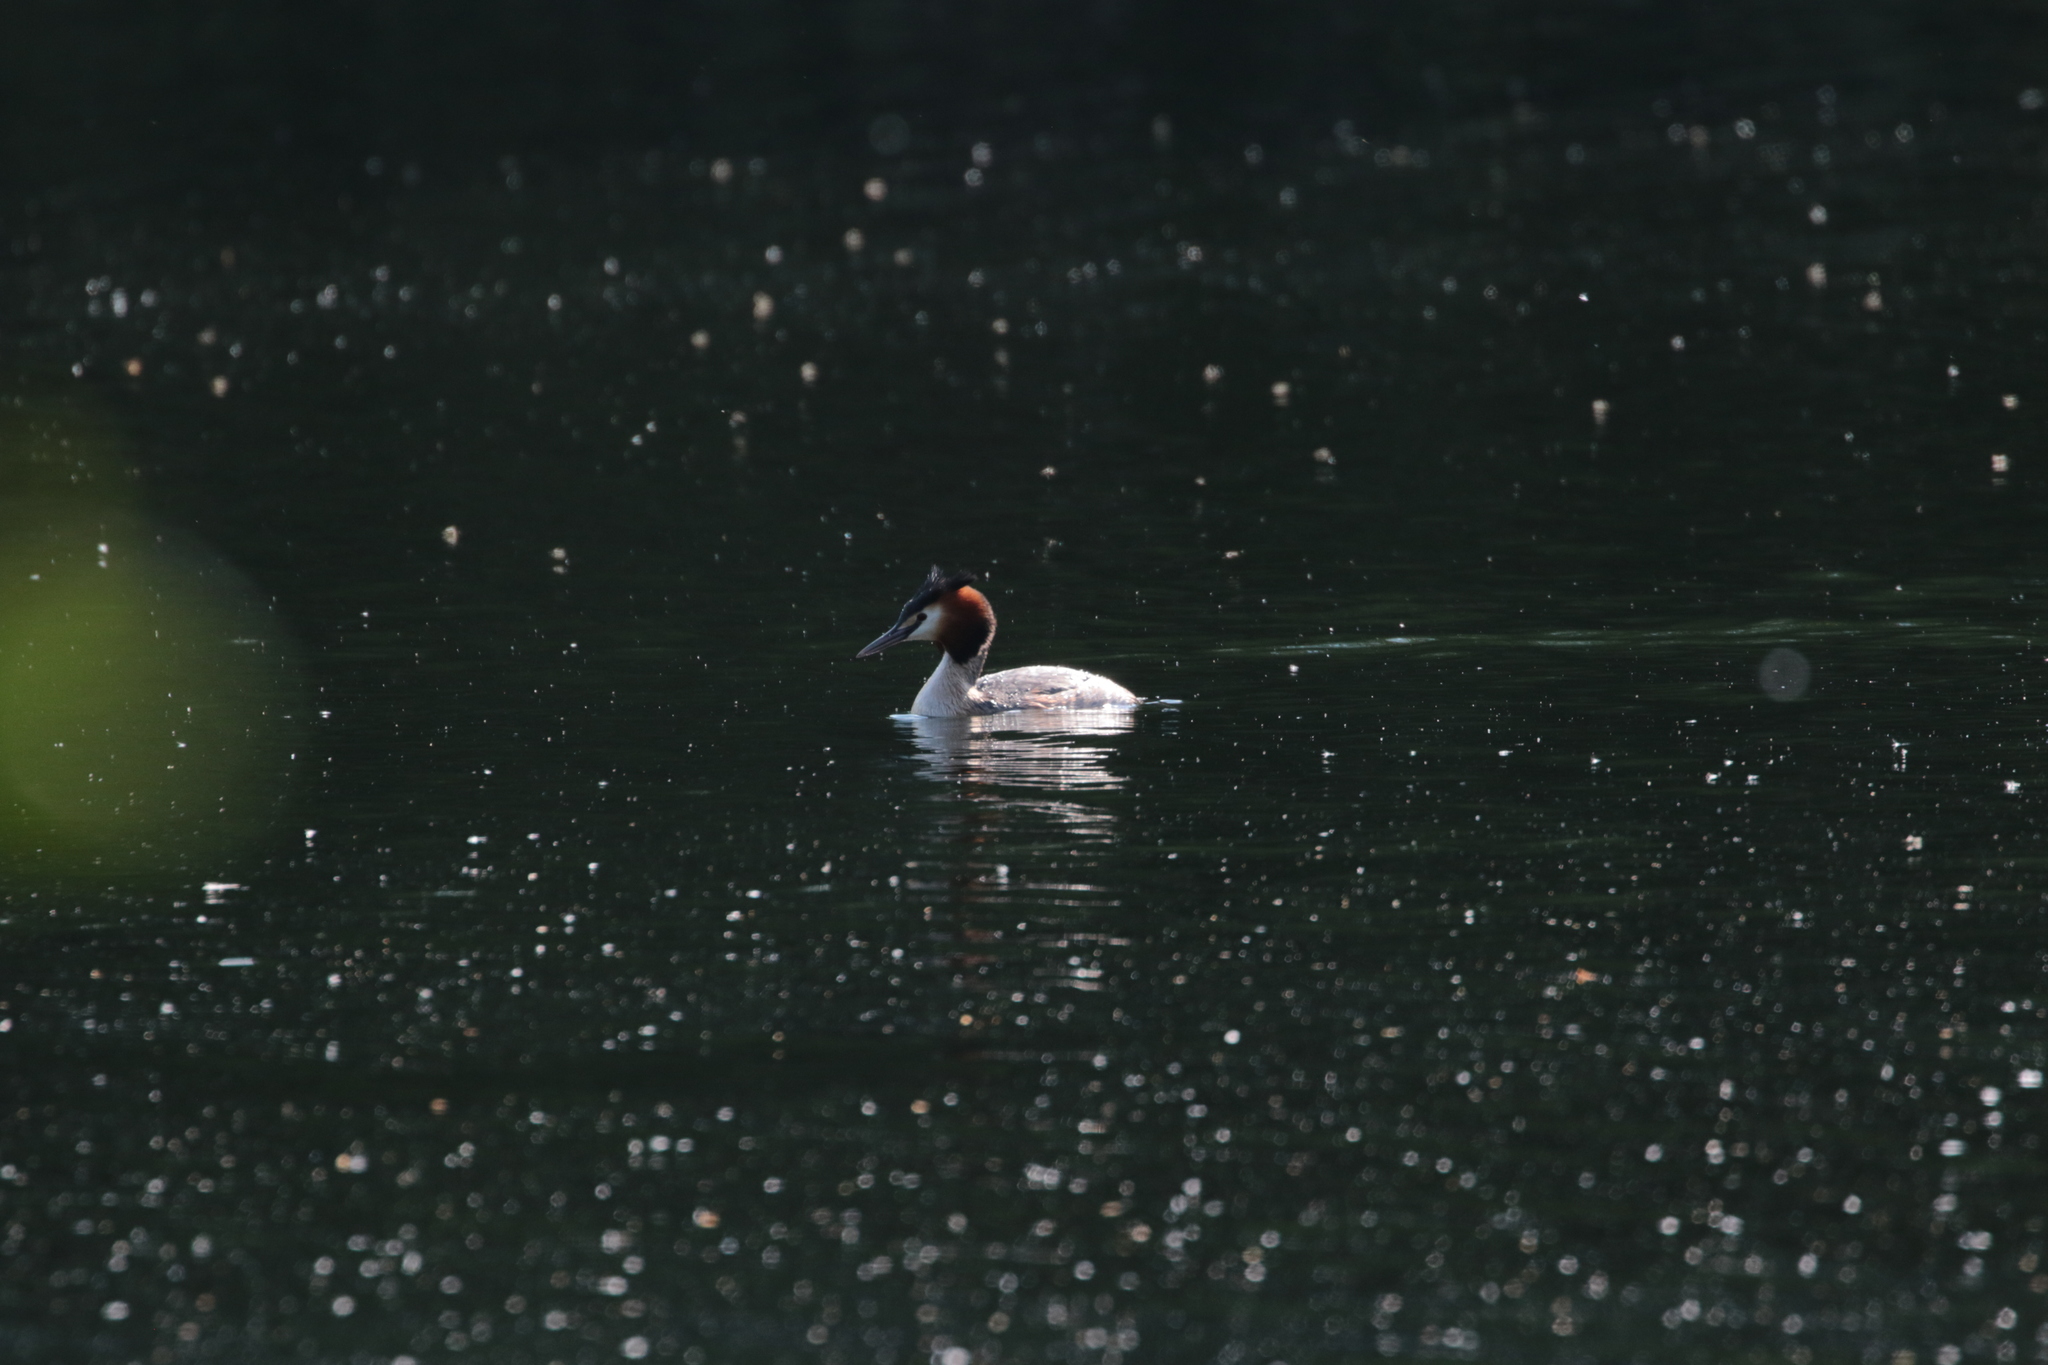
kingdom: Animalia
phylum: Chordata
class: Aves
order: Podicipediformes
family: Podicipedidae
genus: Podiceps
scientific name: Podiceps cristatus
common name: Great crested grebe
